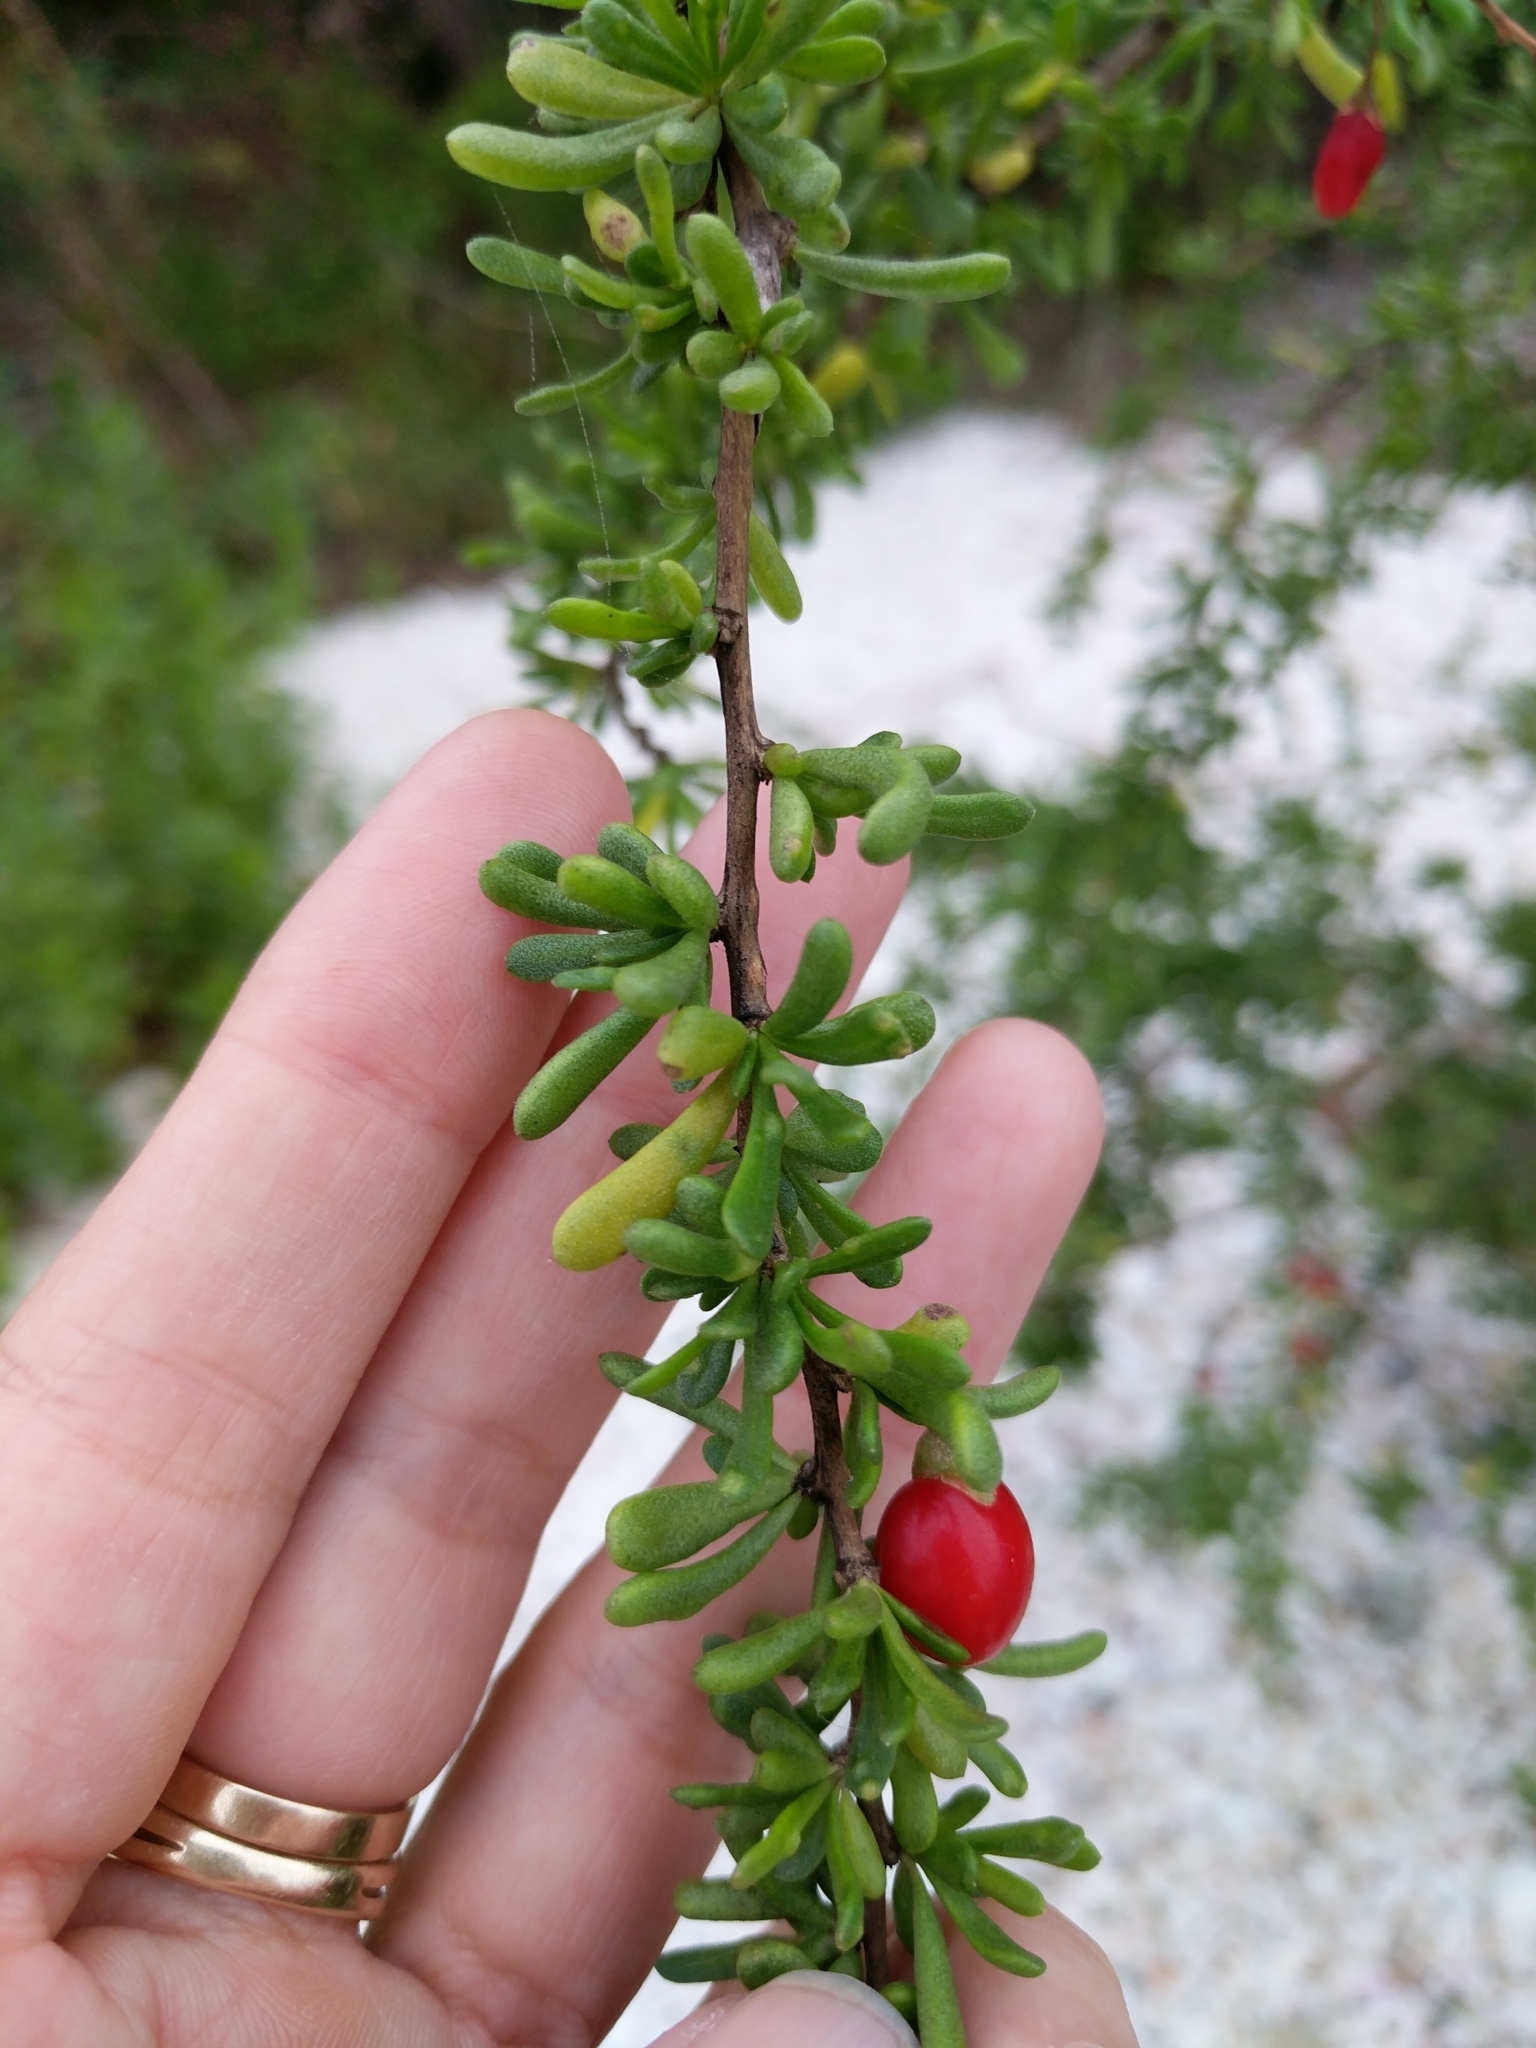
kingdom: Plantae
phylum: Tracheophyta
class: Magnoliopsida
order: Solanales
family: Solanaceae
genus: Lycium
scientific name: Lycium carolinianum
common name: Christmasberry
